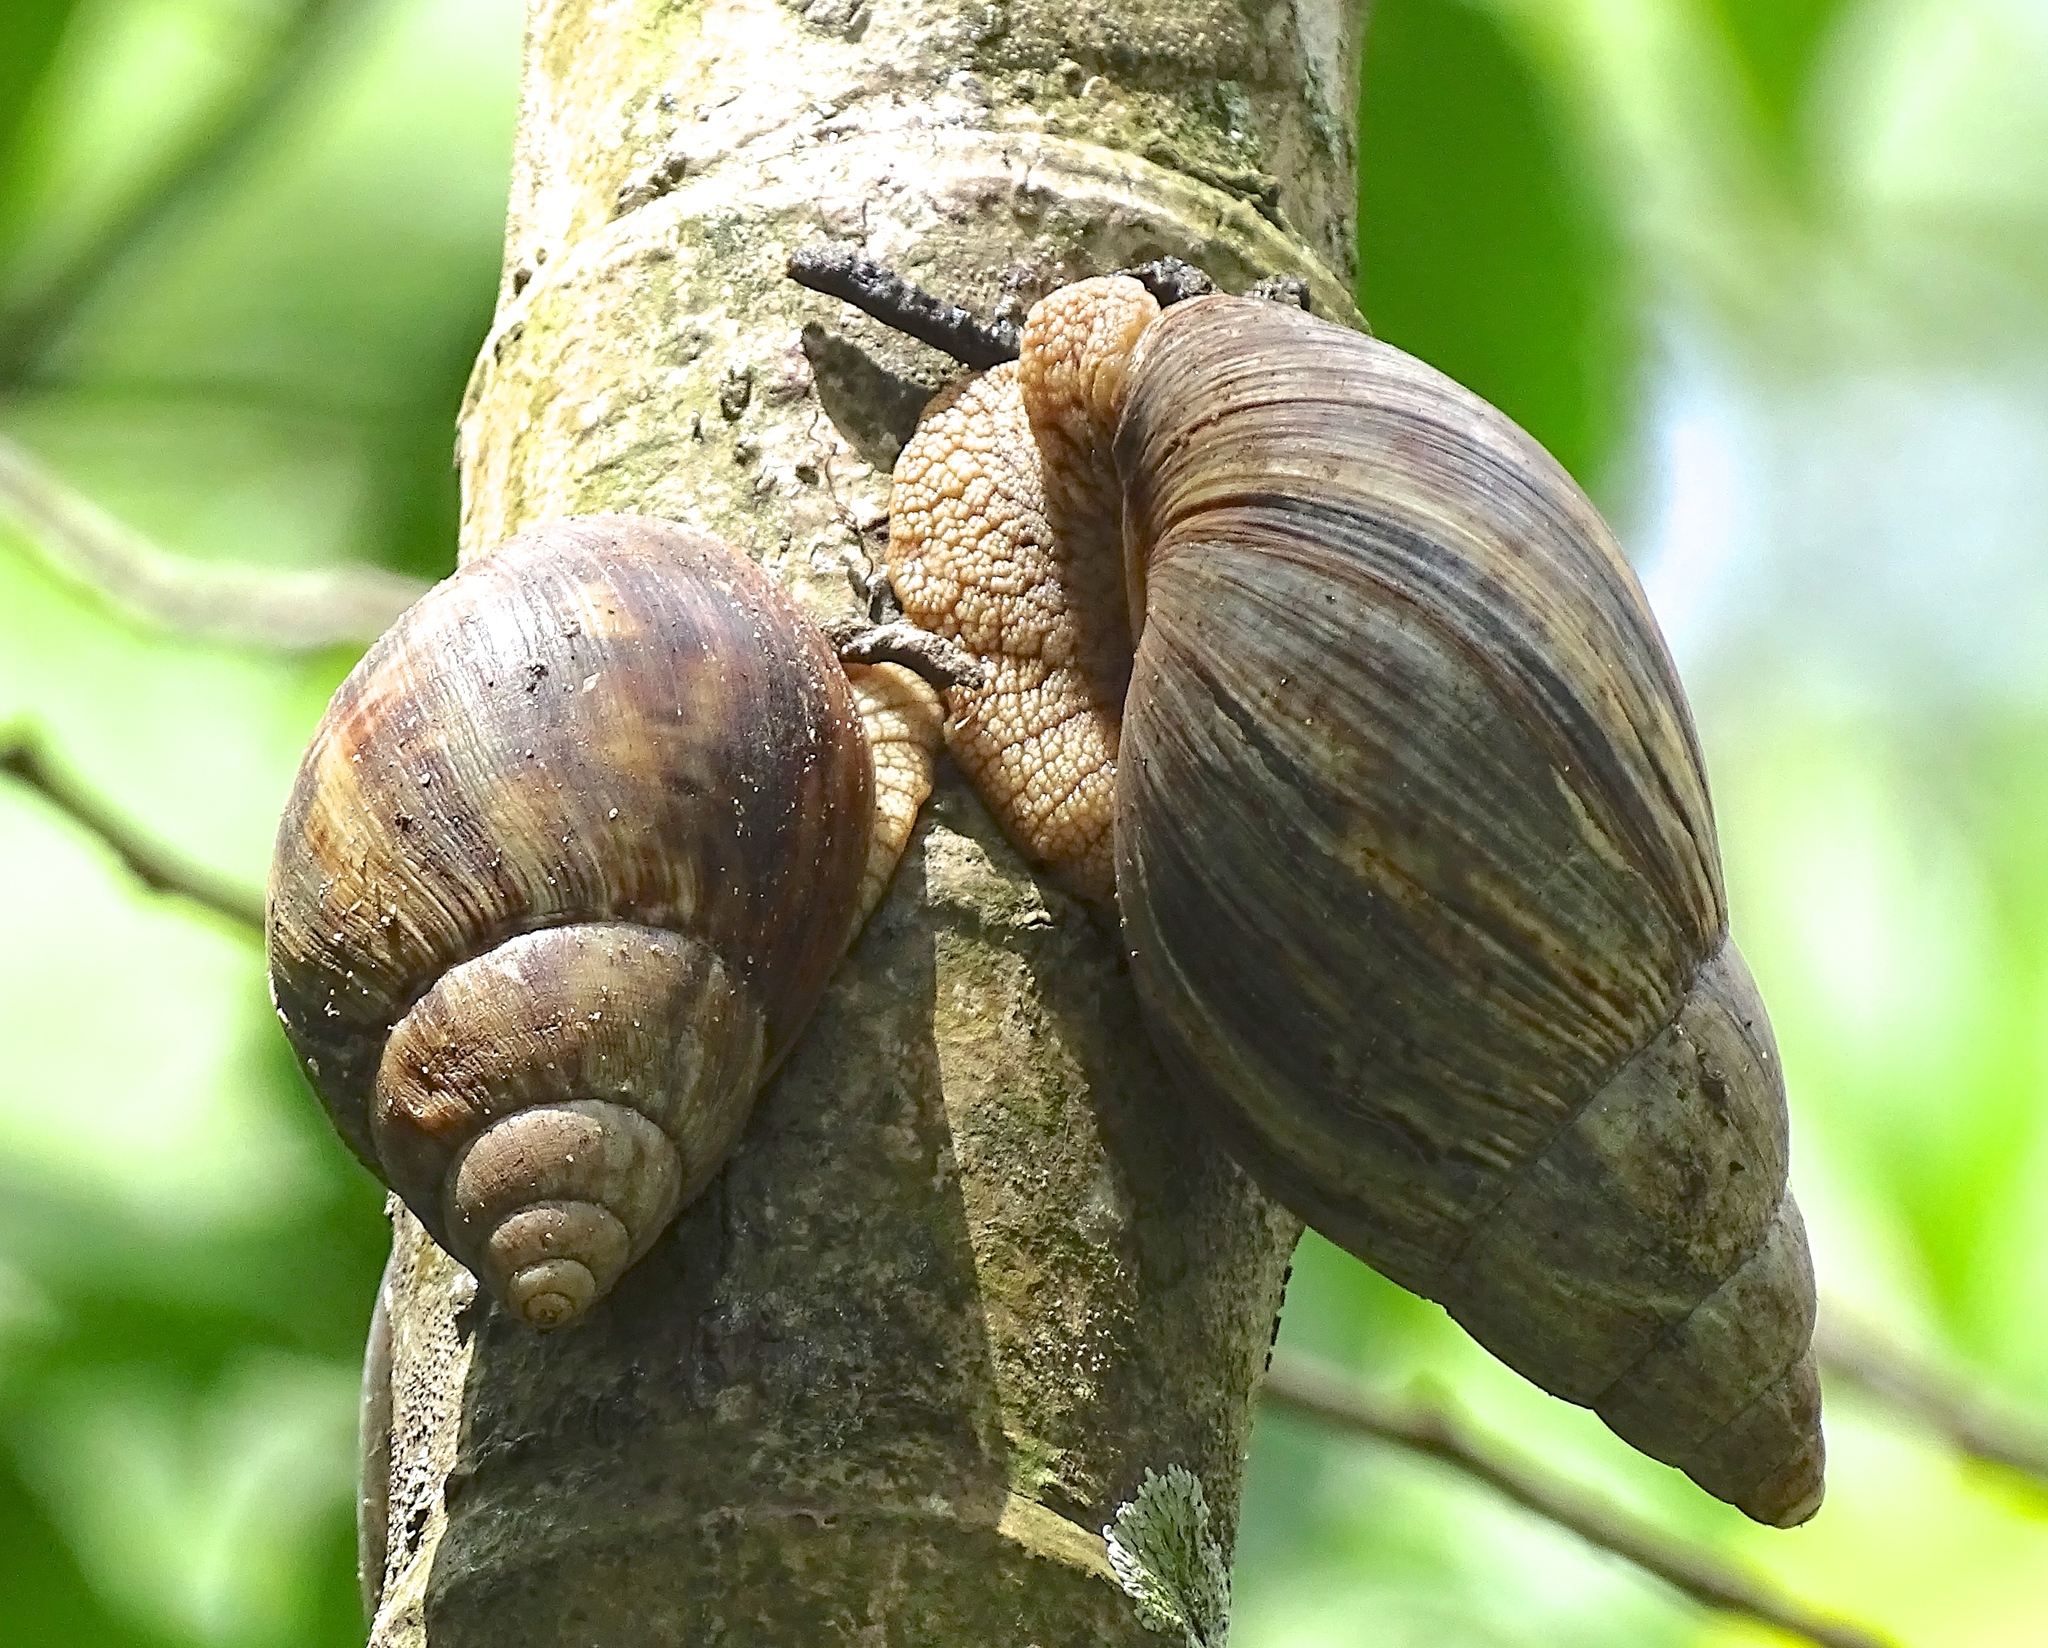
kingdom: Animalia
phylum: Mollusca
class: Gastropoda
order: Stylommatophora
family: Achatinidae
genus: Lissachatina
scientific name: Lissachatina immaculata
